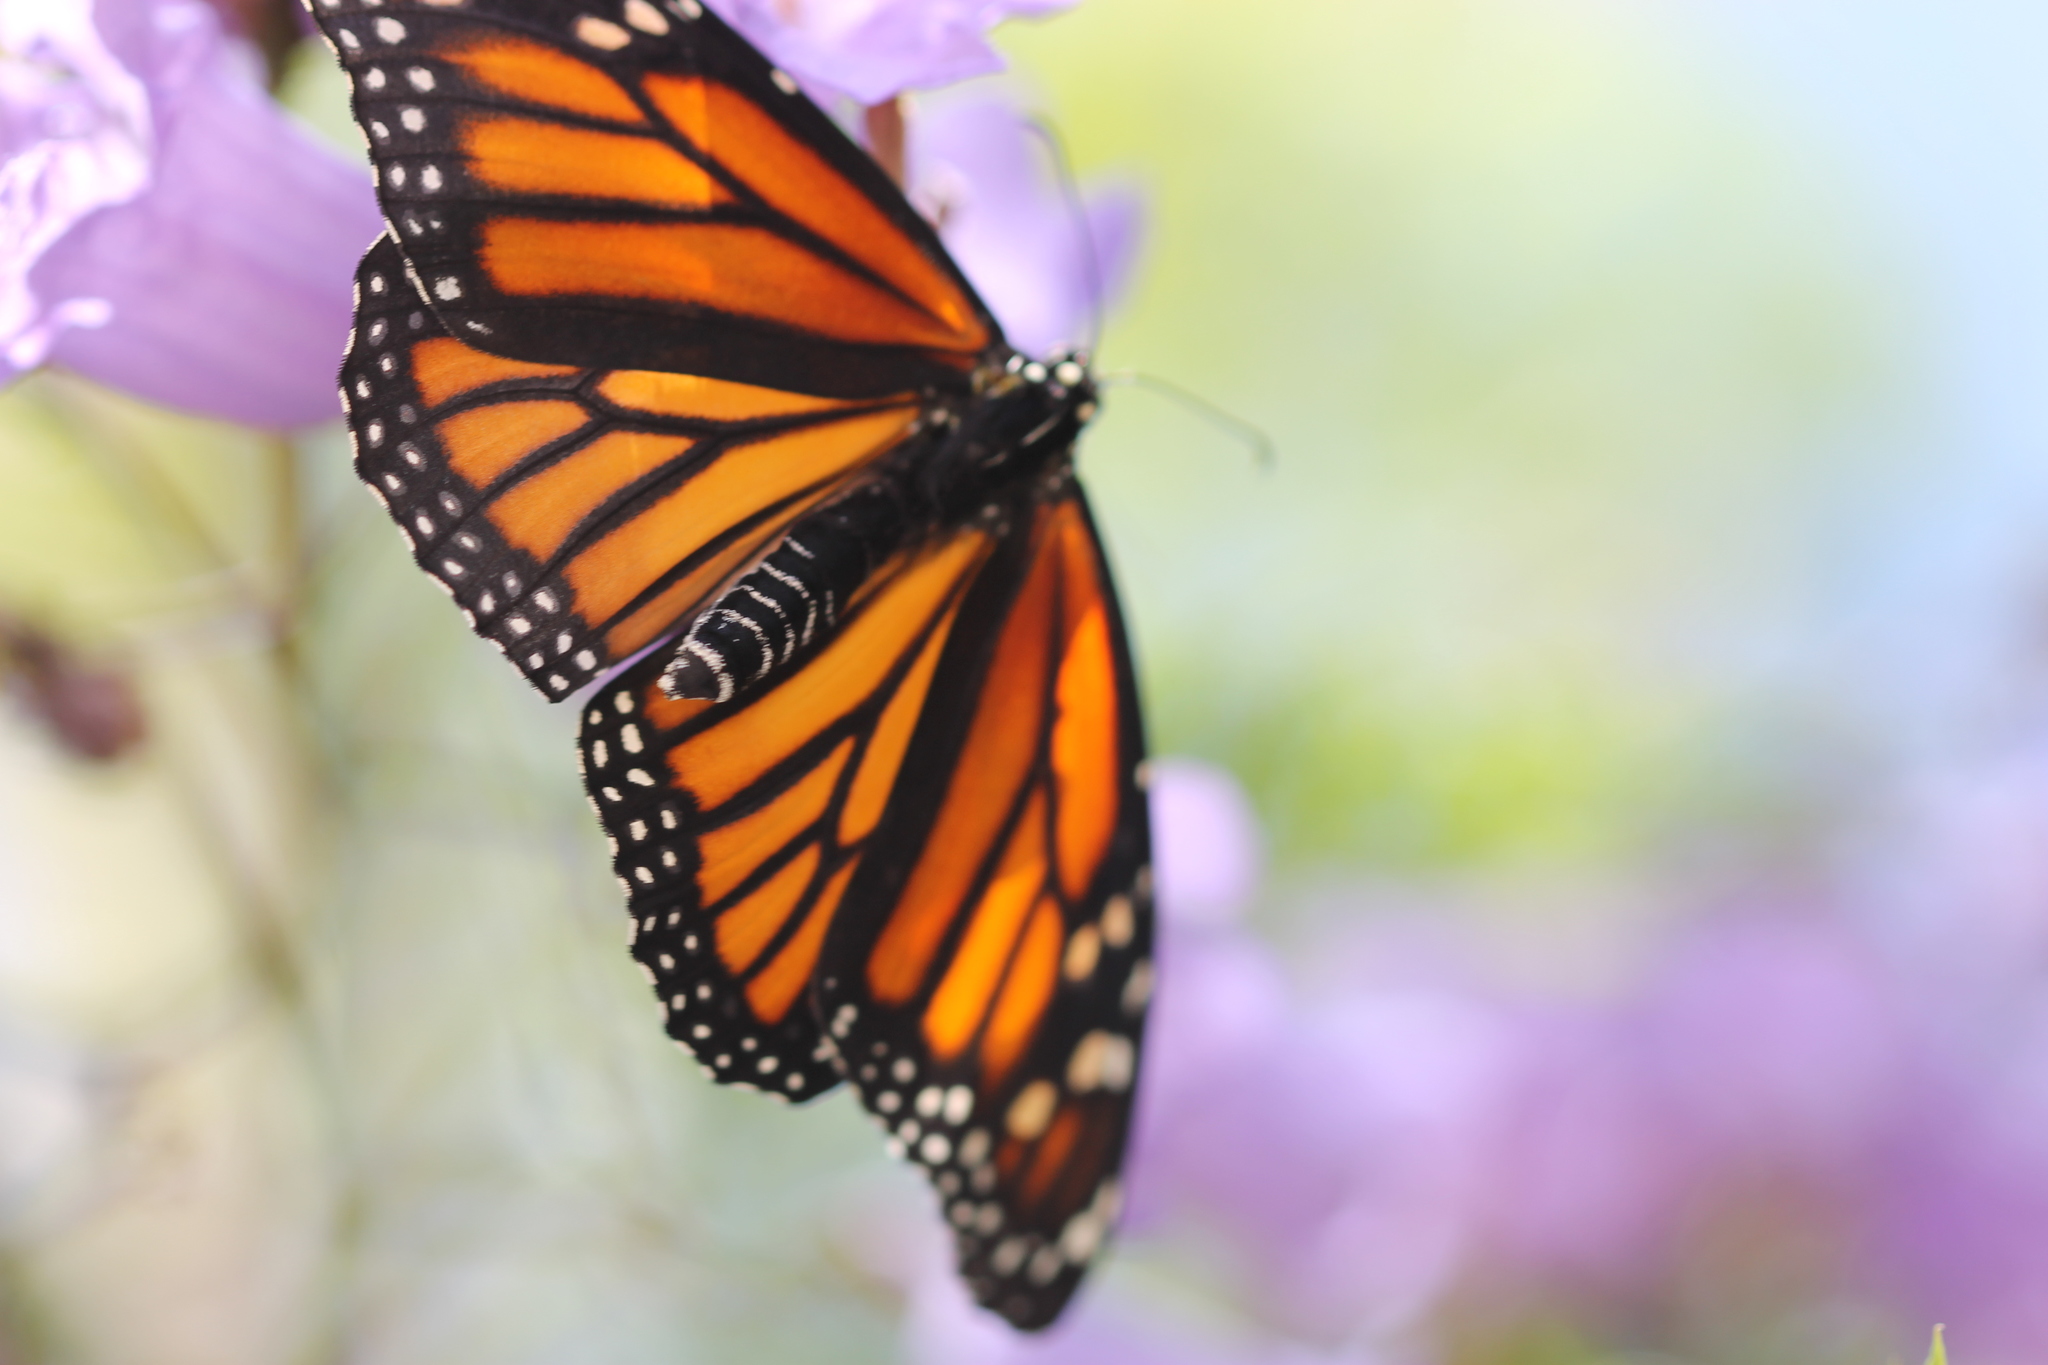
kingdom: Animalia
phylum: Arthropoda
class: Insecta
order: Lepidoptera
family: Nymphalidae
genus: Danaus
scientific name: Danaus plexippus
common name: Monarch
